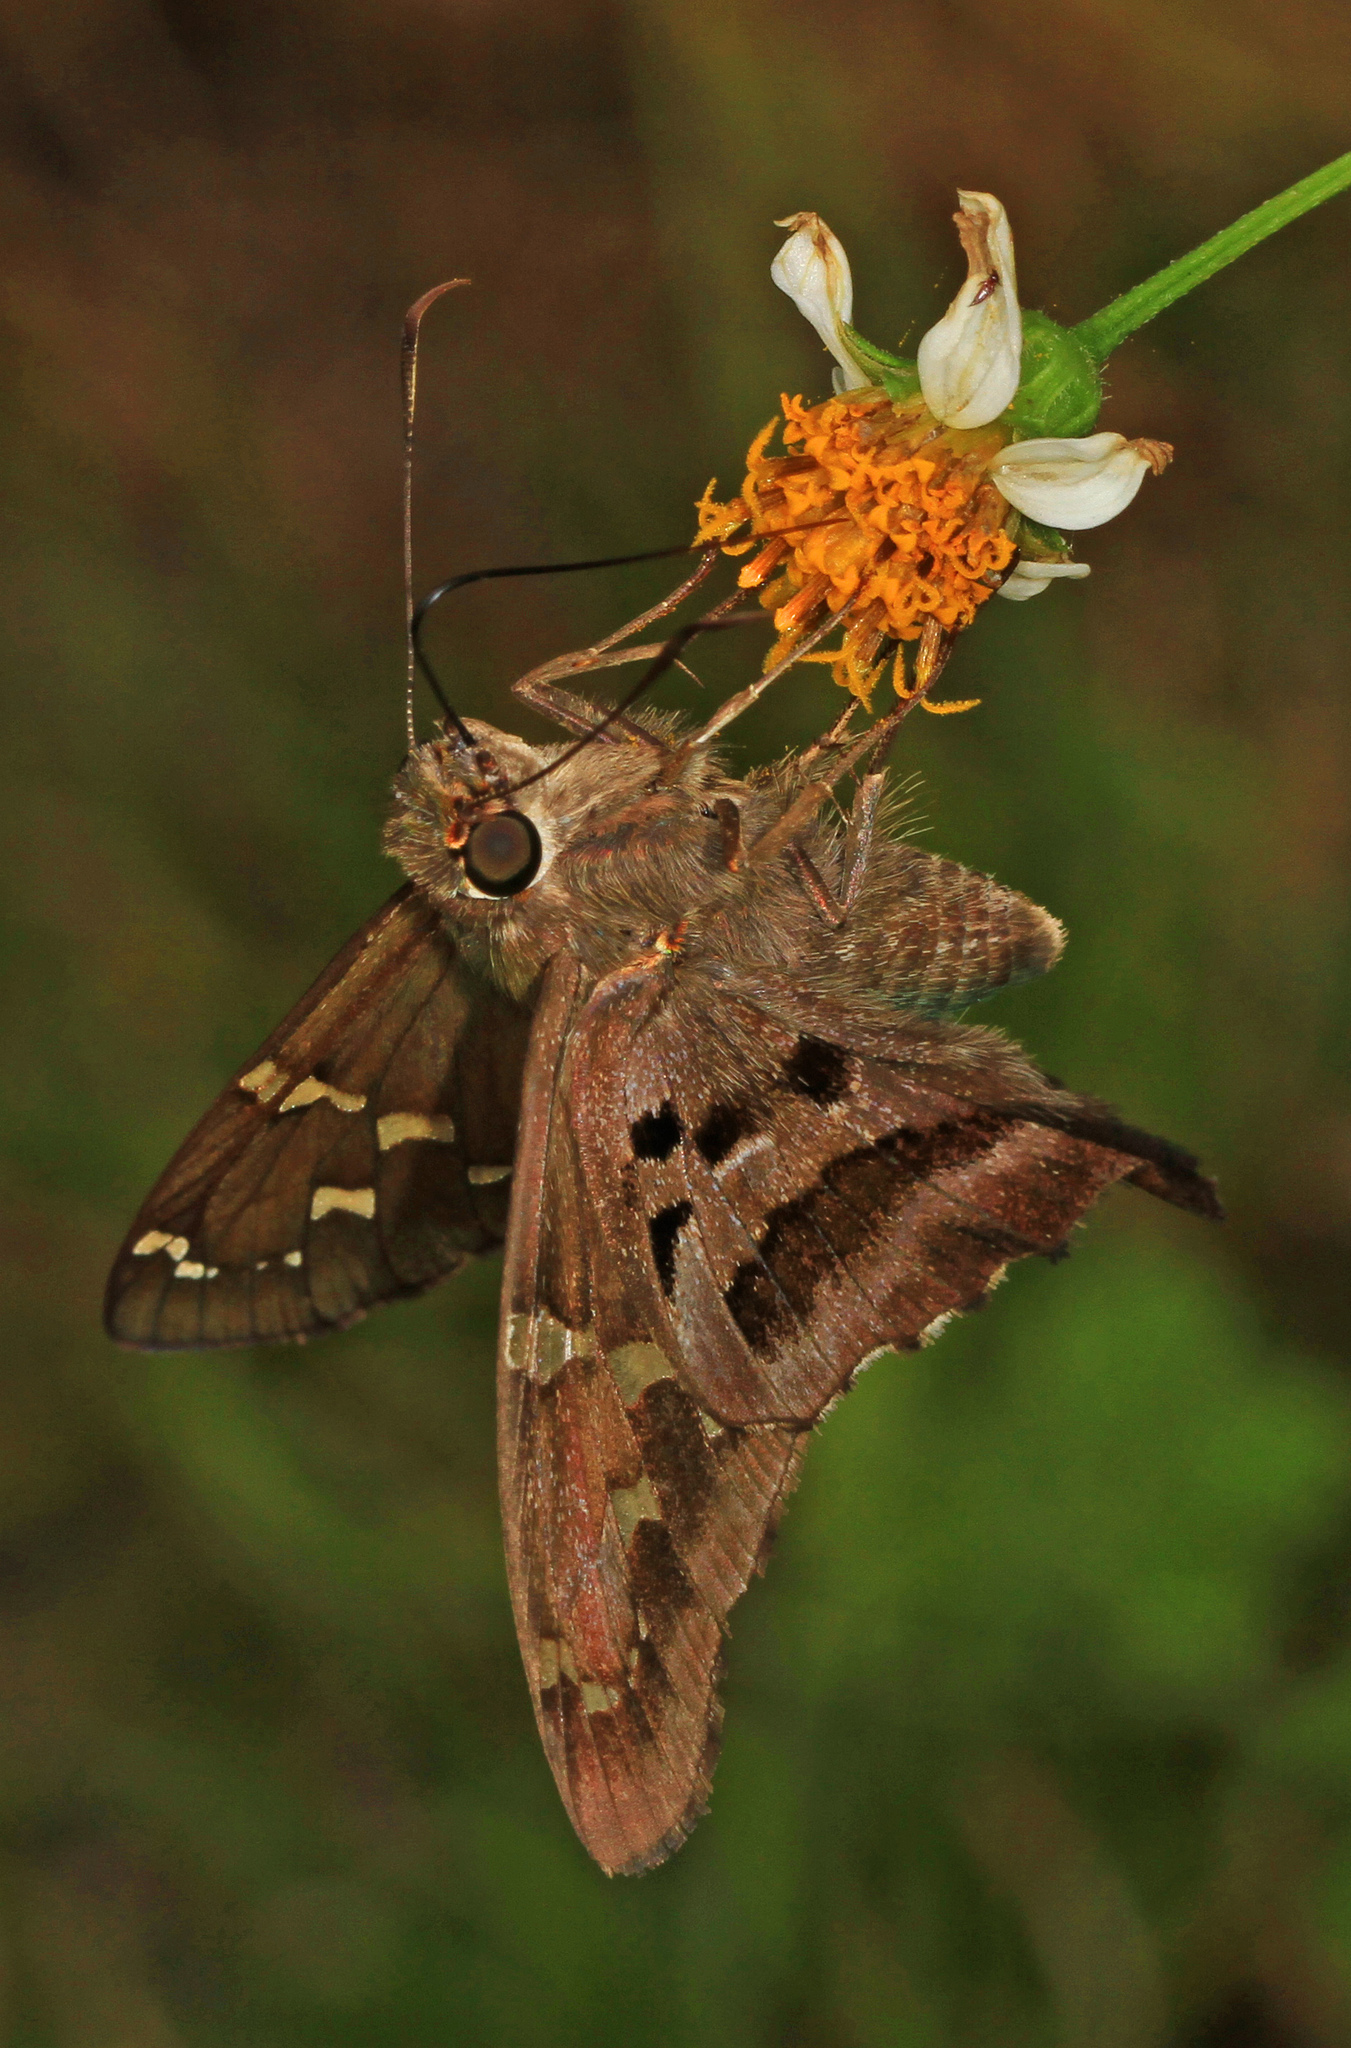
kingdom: Animalia
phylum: Arthropoda
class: Insecta
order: Lepidoptera
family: Hesperiidae
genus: Urbanus
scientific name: Urbanus proteus
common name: Long-tailed skipper
